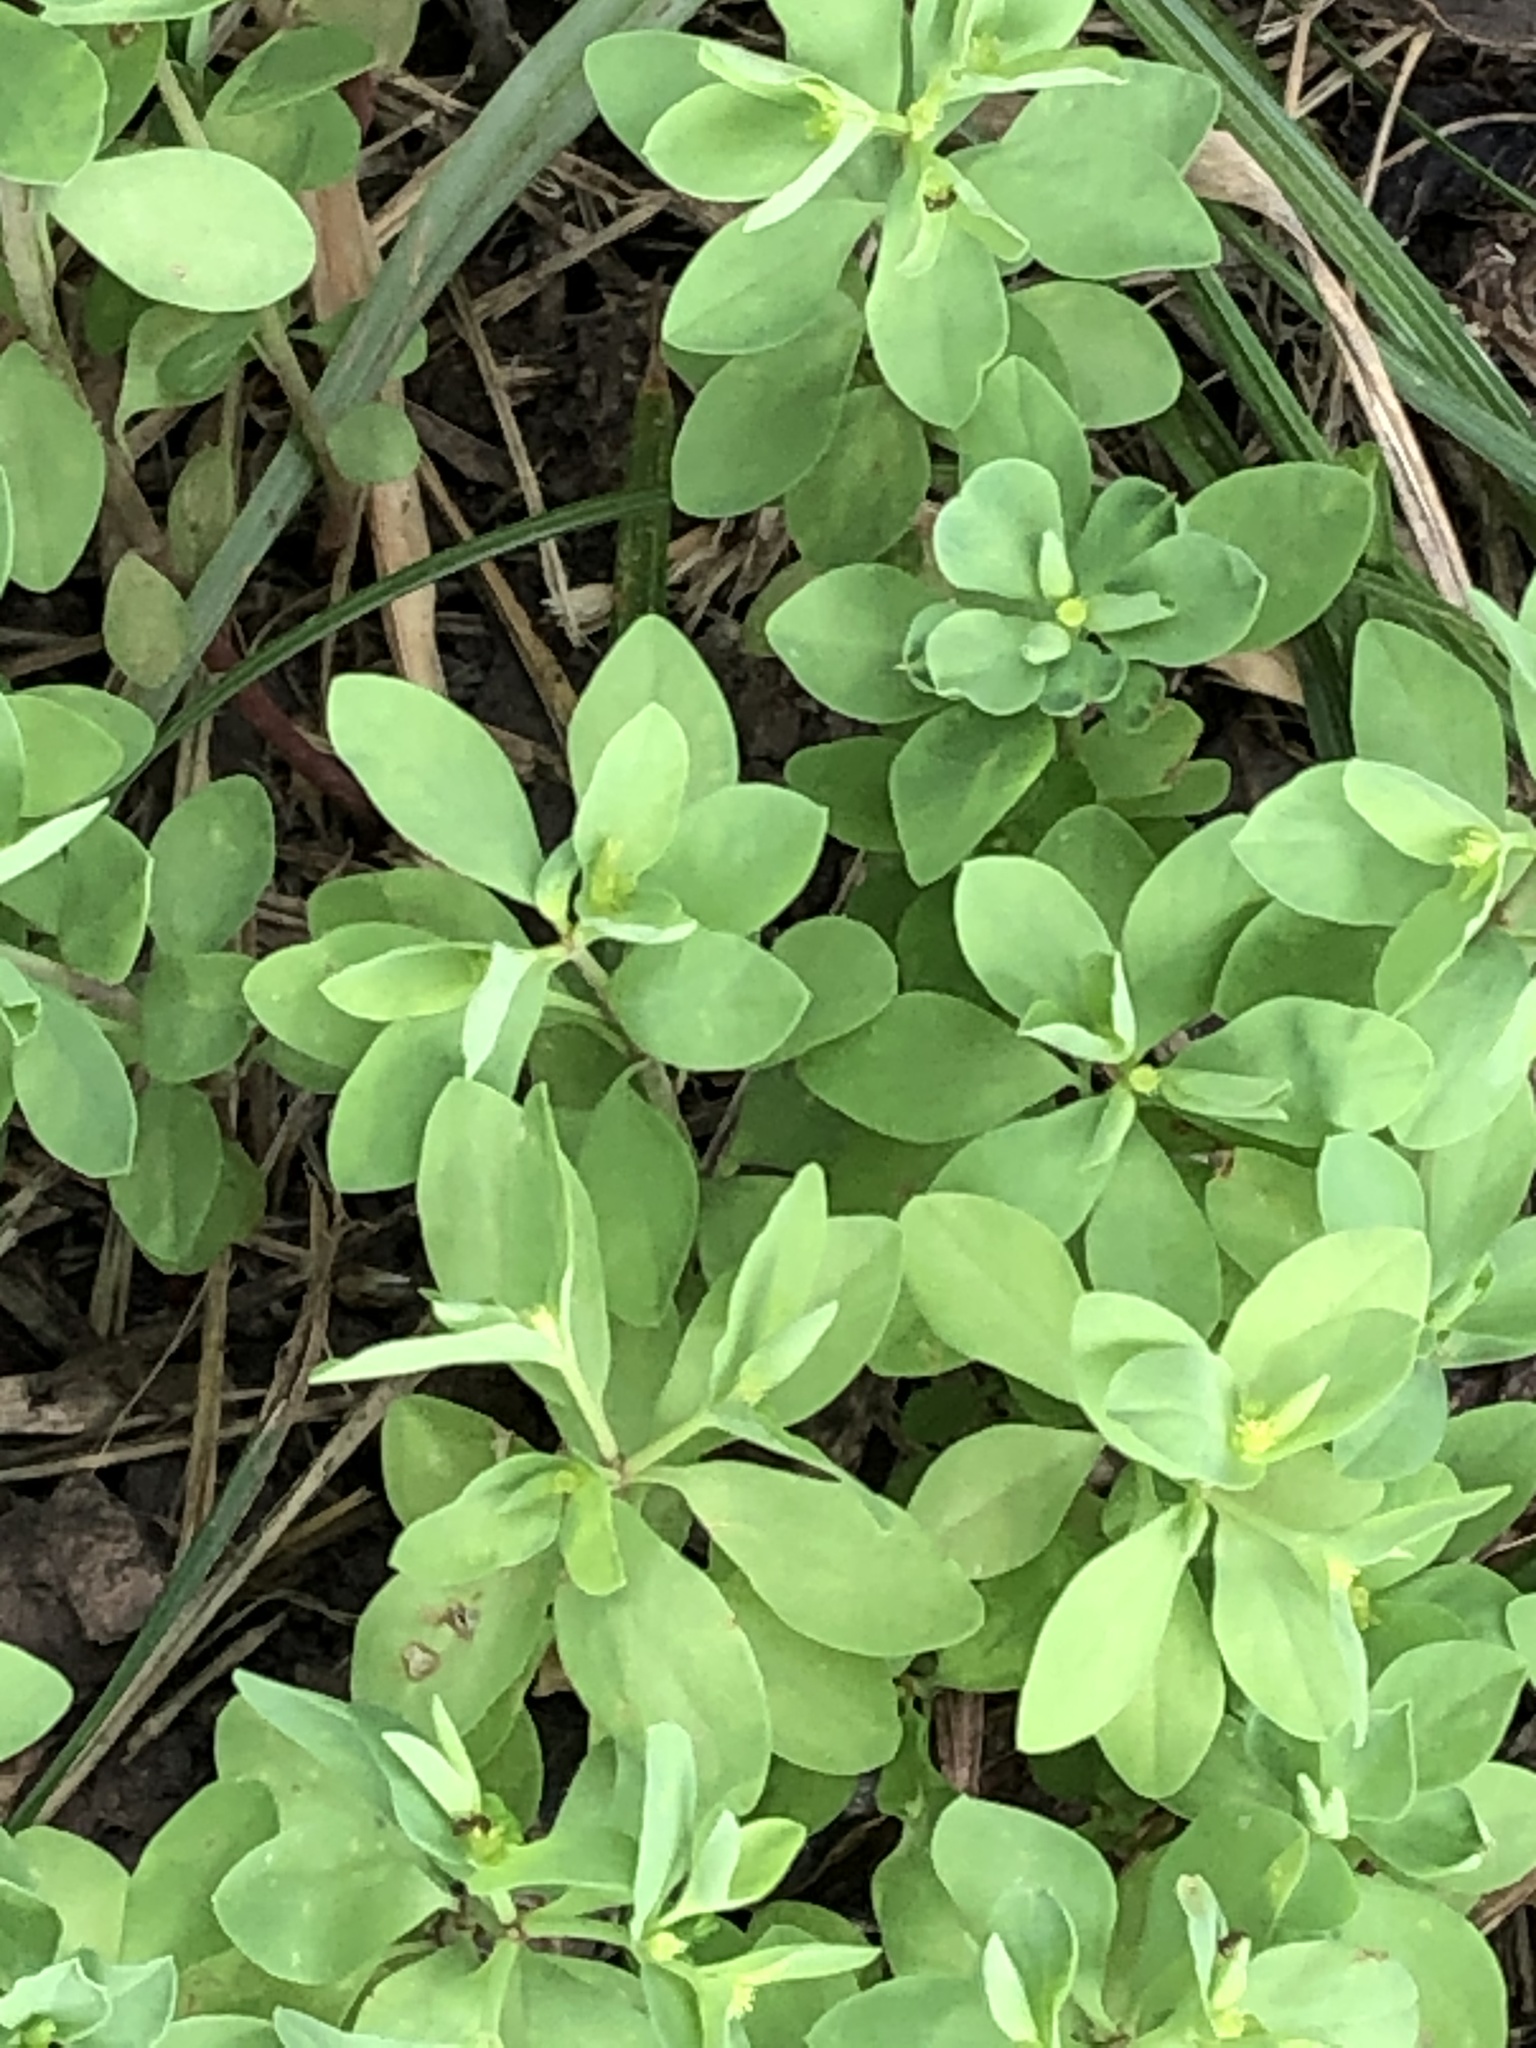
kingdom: Plantae
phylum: Tracheophyta
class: Magnoliopsida
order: Malpighiales
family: Euphorbiaceae
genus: Euphorbia
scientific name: Euphorbia peplus
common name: Petty spurge
